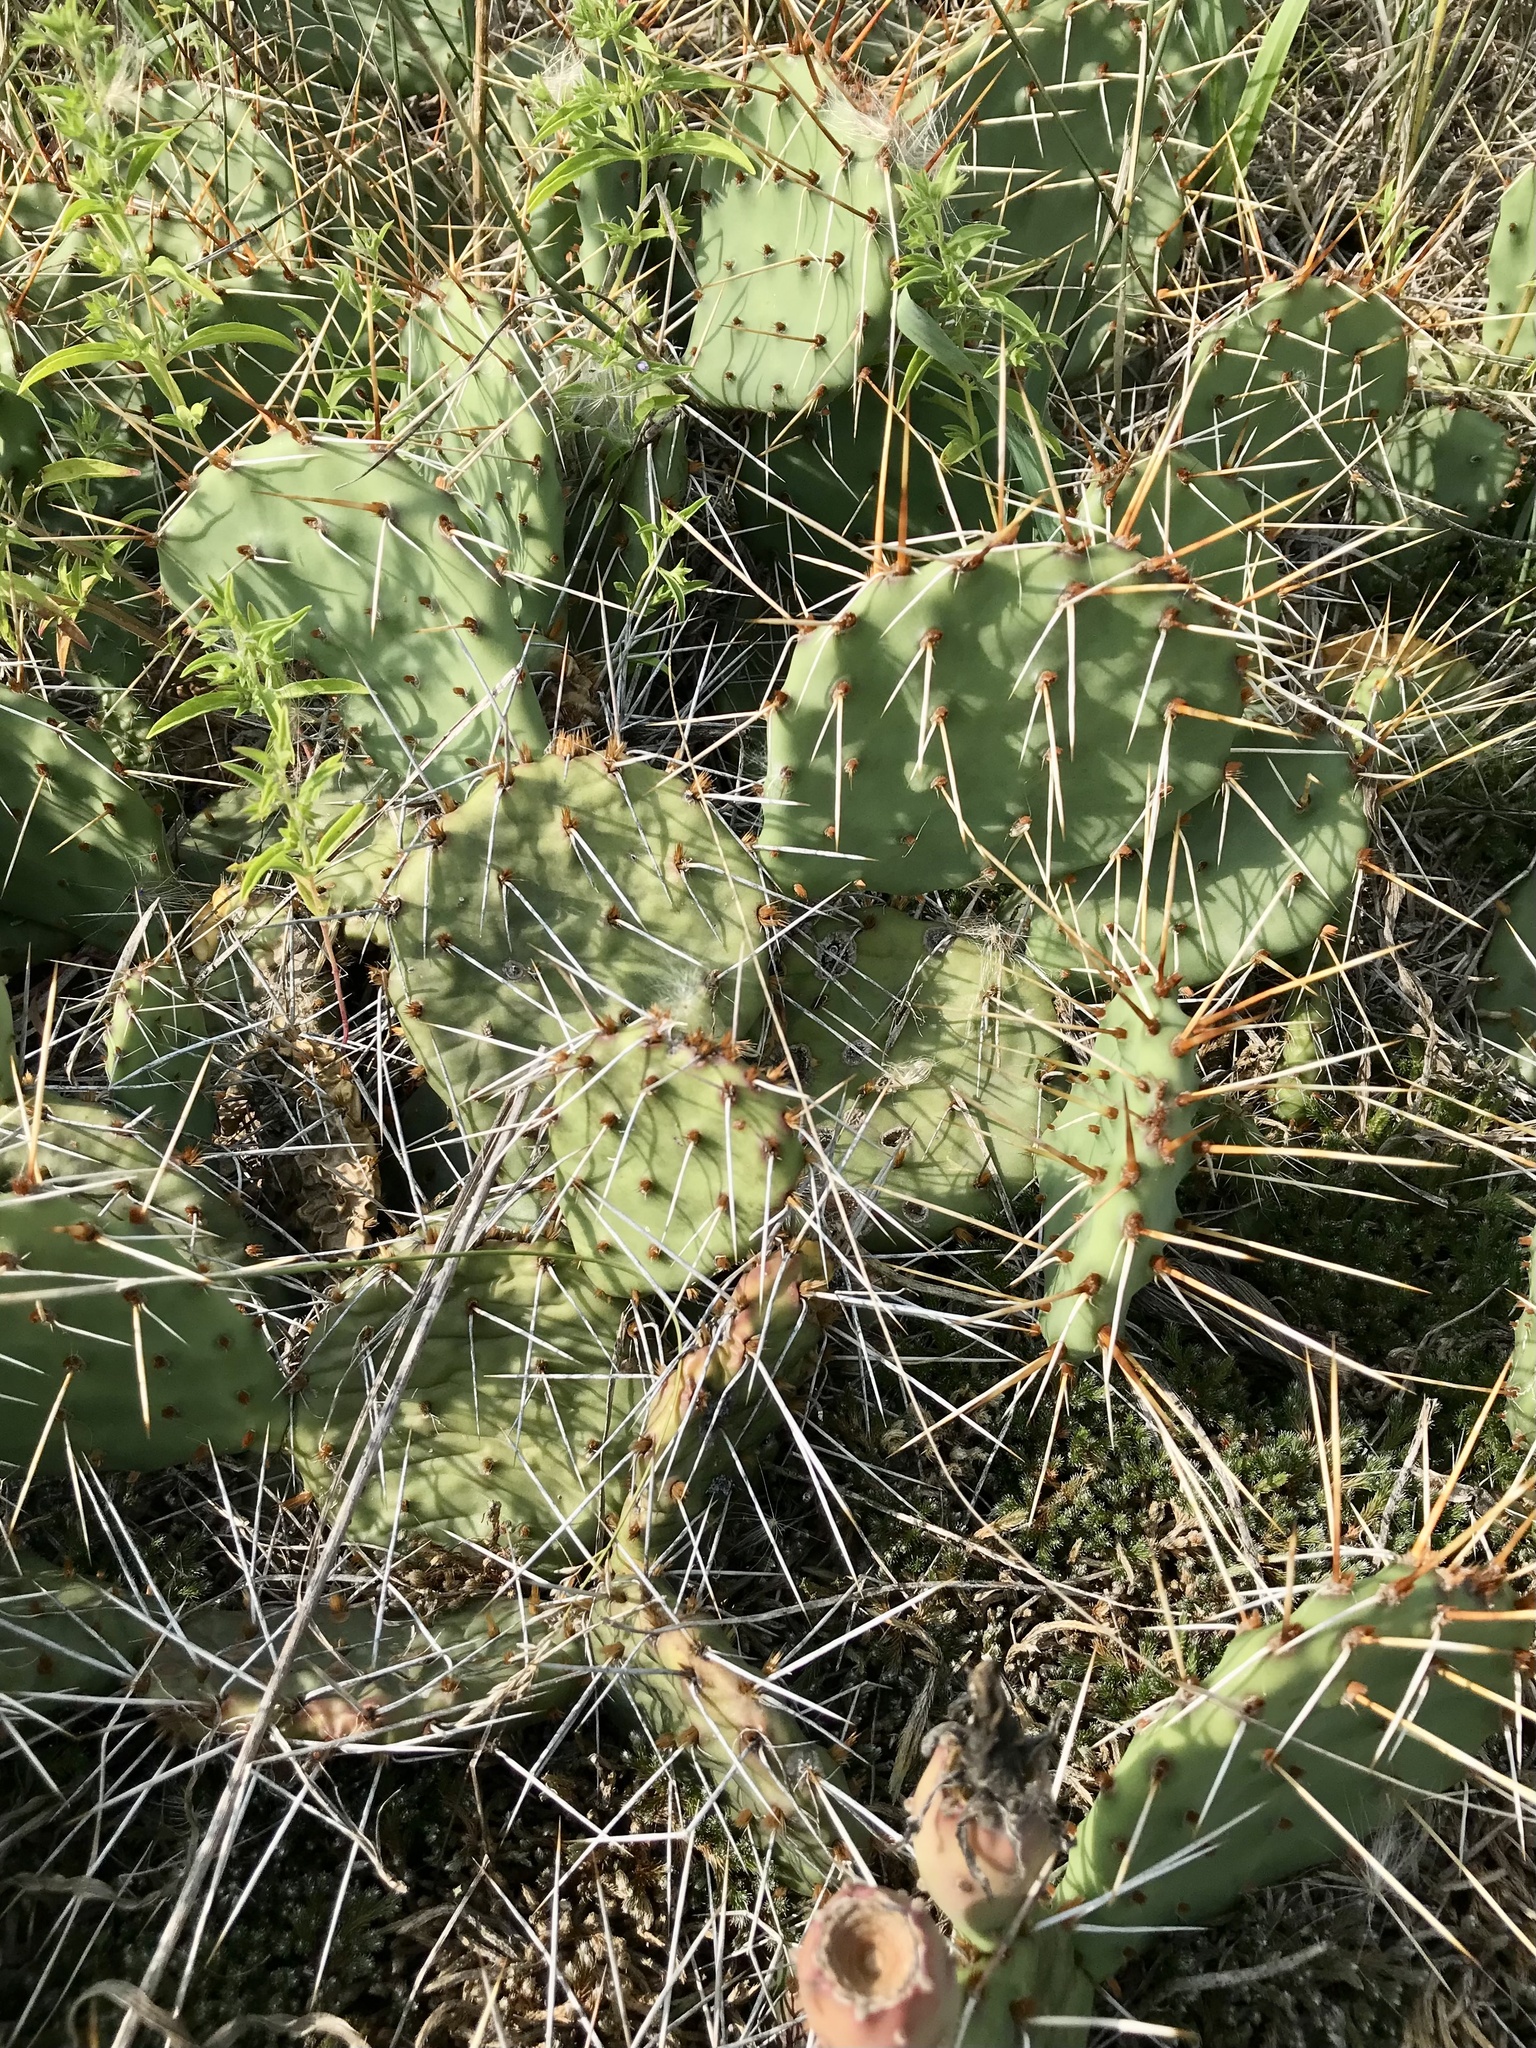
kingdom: Plantae
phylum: Tracheophyta
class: Magnoliopsida
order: Caryophyllales
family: Cactaceae
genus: Opuntia
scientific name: Opuntia macrorhiza
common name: Grassland pricklypear
